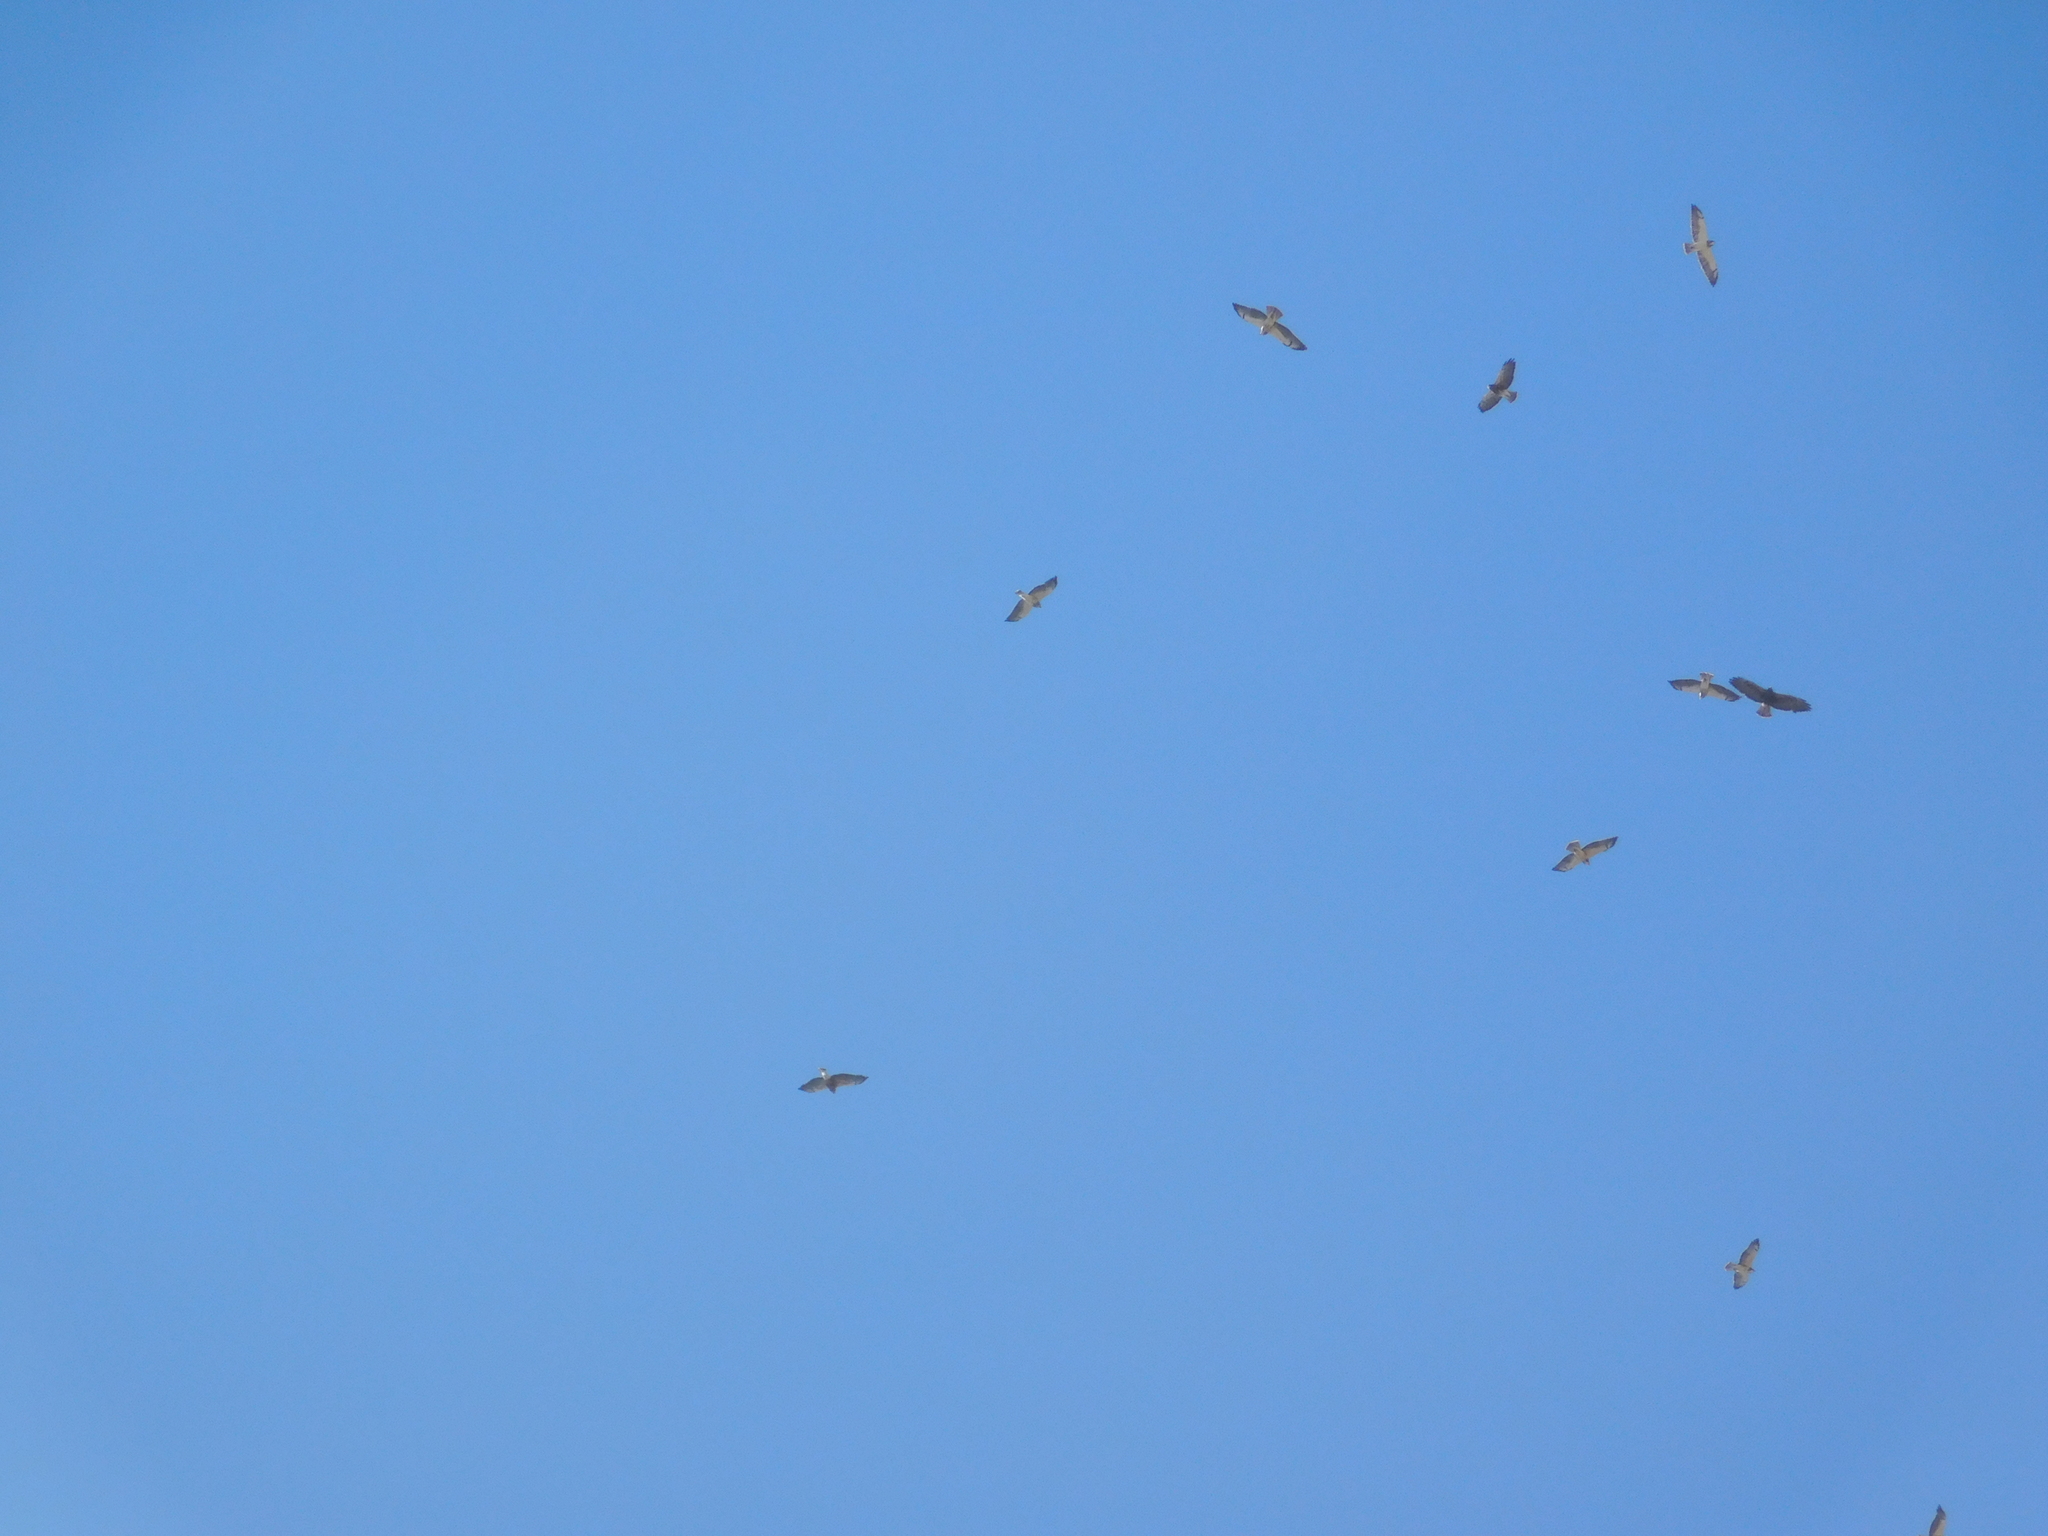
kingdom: Animalia
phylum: Chordata
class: Aves
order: Accipitriformes
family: Accipitridae
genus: Buteo
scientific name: Buteo swainsoni
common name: Swainson's hawk
